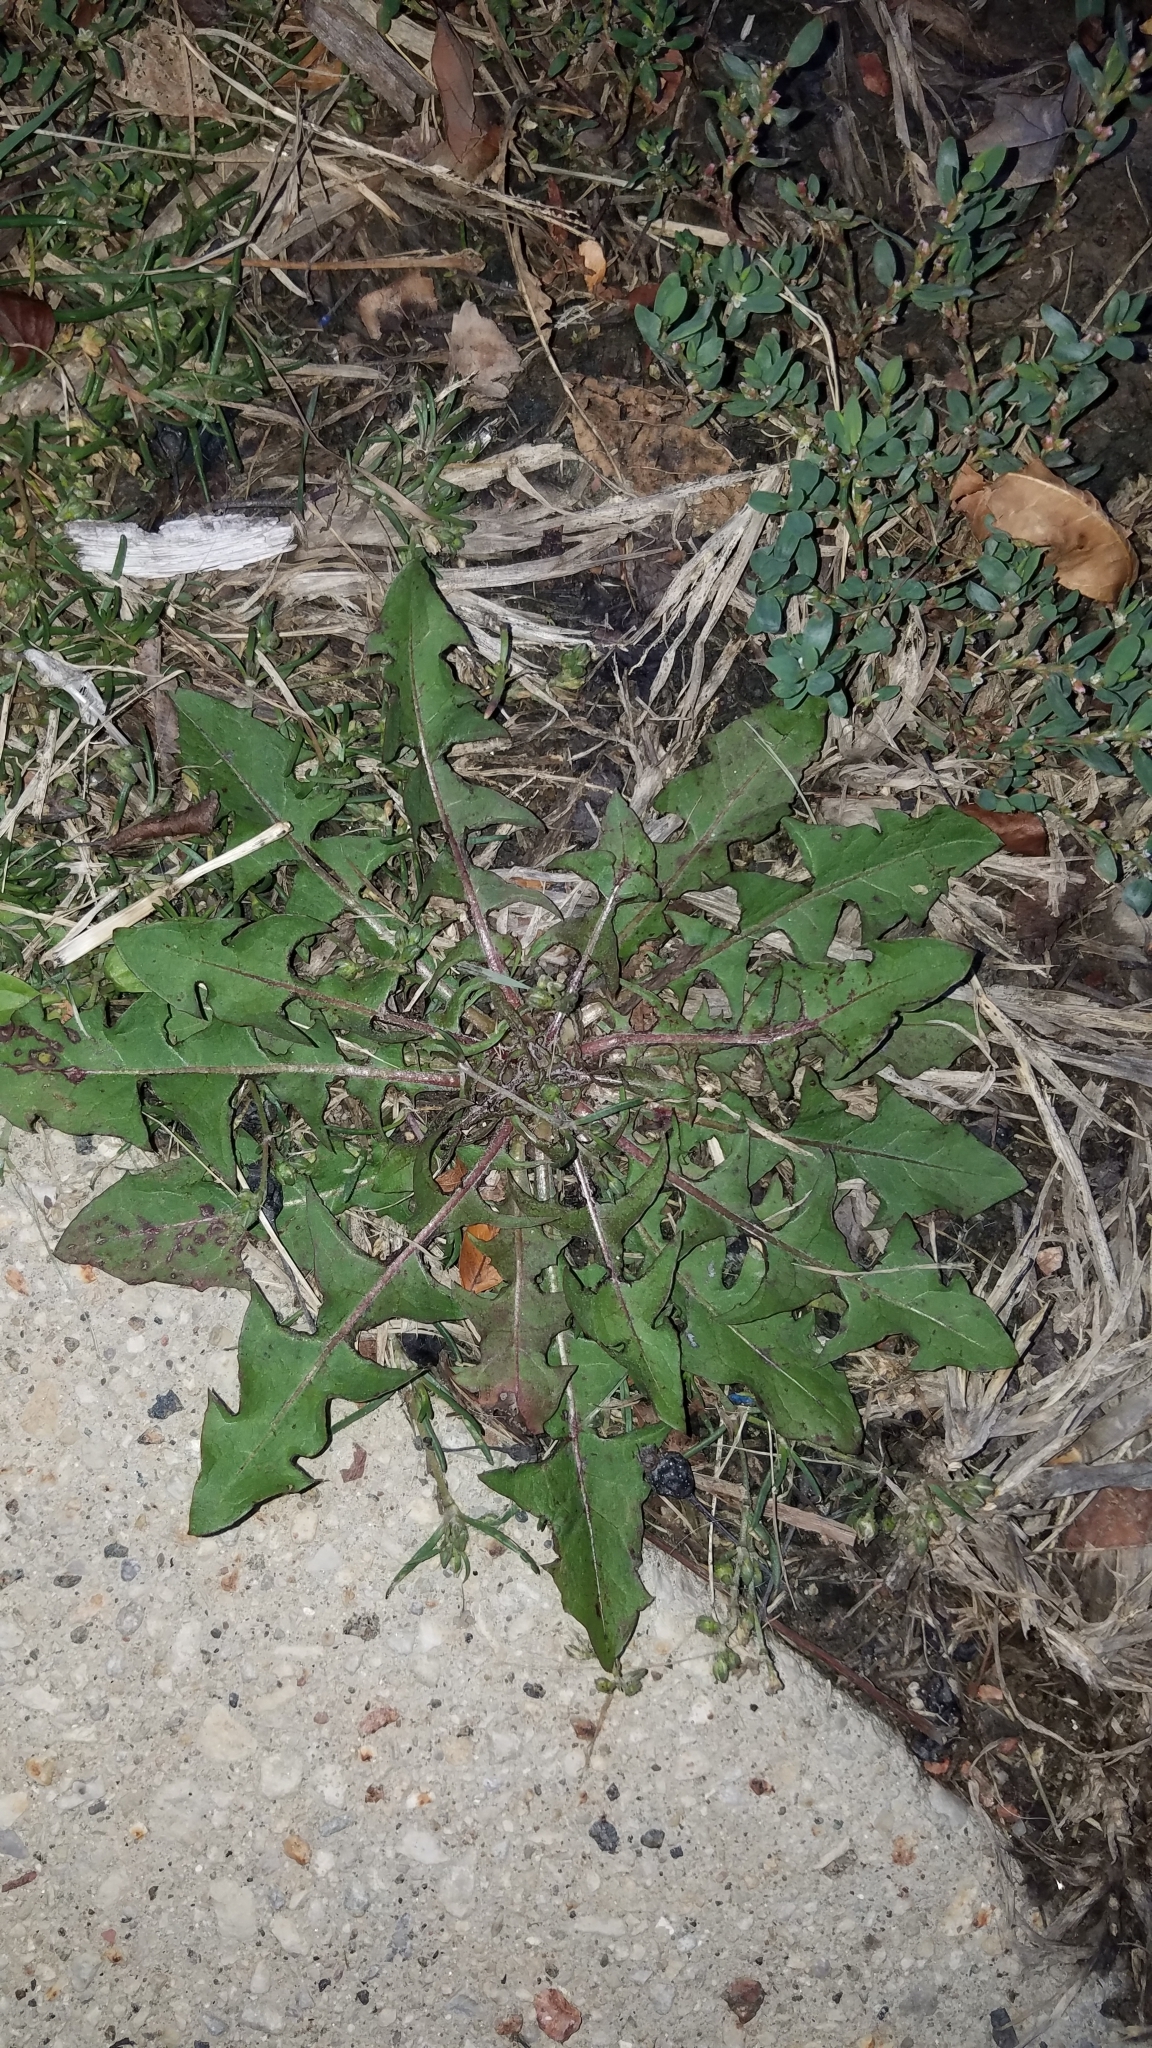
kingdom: Plantae
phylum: Tracheophyta
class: Magnoliopsida
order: Asterales
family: Asteraceae
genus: Taraxacum
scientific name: Taraxacum officinale
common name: Common dandelion
